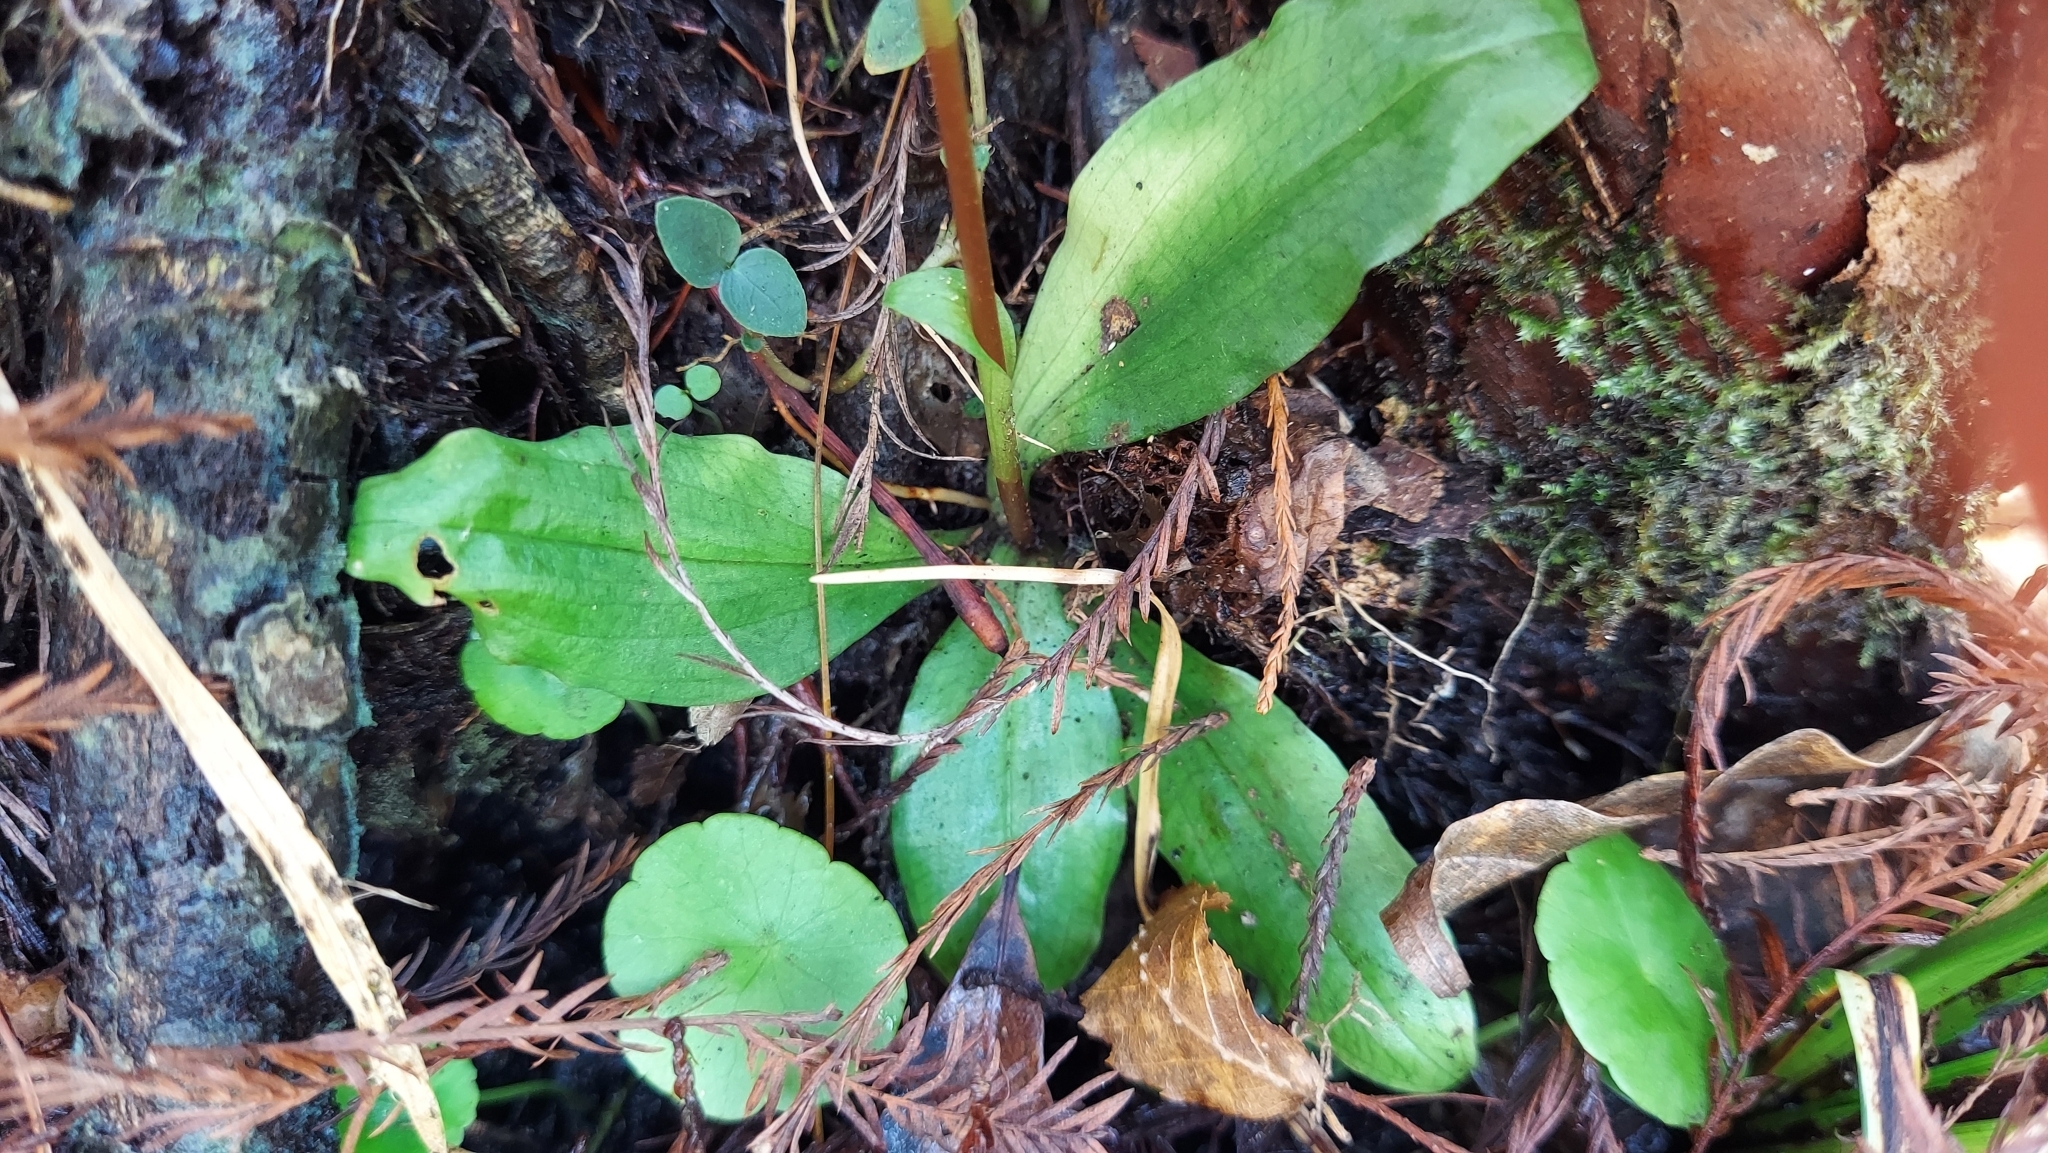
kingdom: Plantae
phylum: Tracheophyta
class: Liliopsida
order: Asparagales
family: Orchidaceae
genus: Ponthieva
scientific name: Ponthieva racemosa
